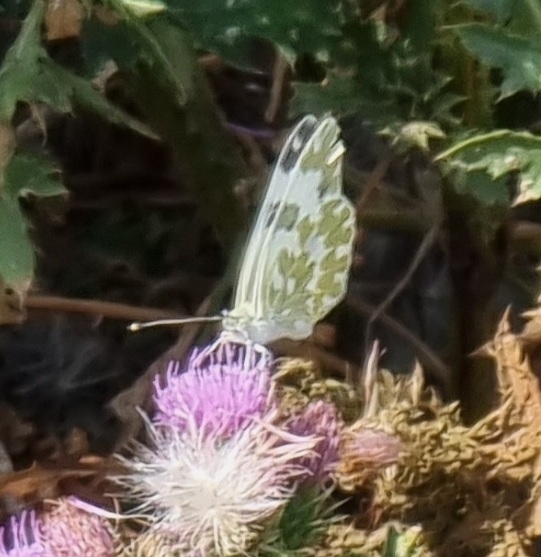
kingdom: Animalia
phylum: Arthropoda
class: Insecta
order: Lepidoptera
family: Pieridae
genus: Pontia
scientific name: Pontia edusa
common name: Eastern bath white
